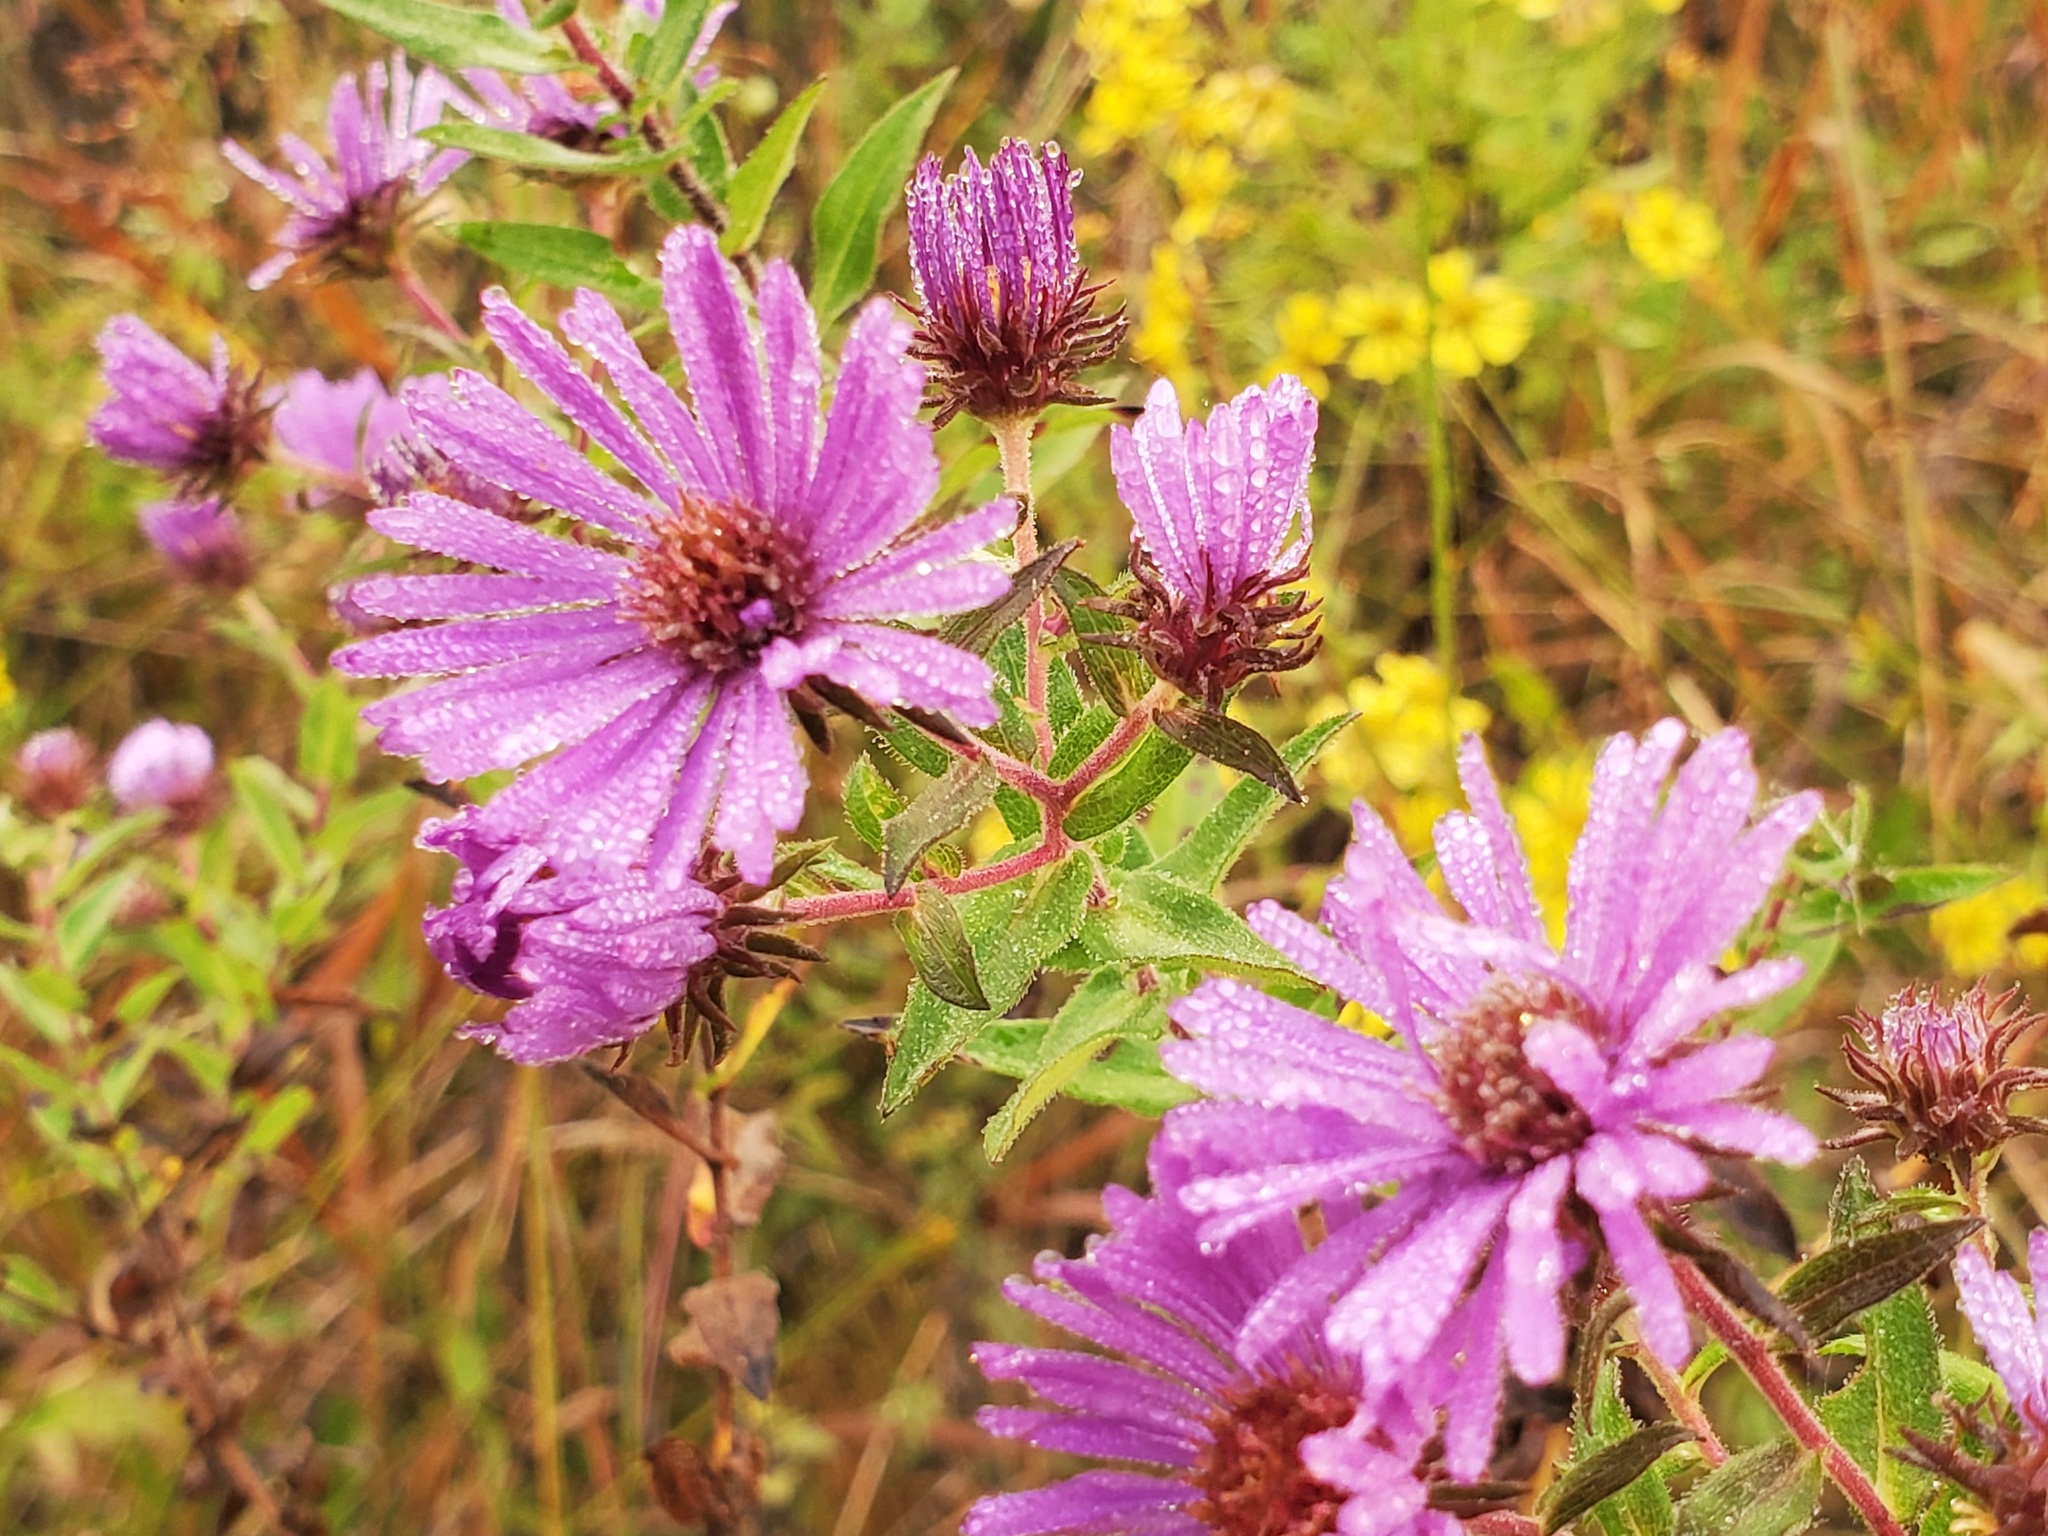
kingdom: Plantae
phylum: Tracheophyta
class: Magnoliopsida
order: Asterales
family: Asteraceae
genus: Symphyotrichum
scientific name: Symphyotrichum novae-angliae
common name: Michaelmas daisy
